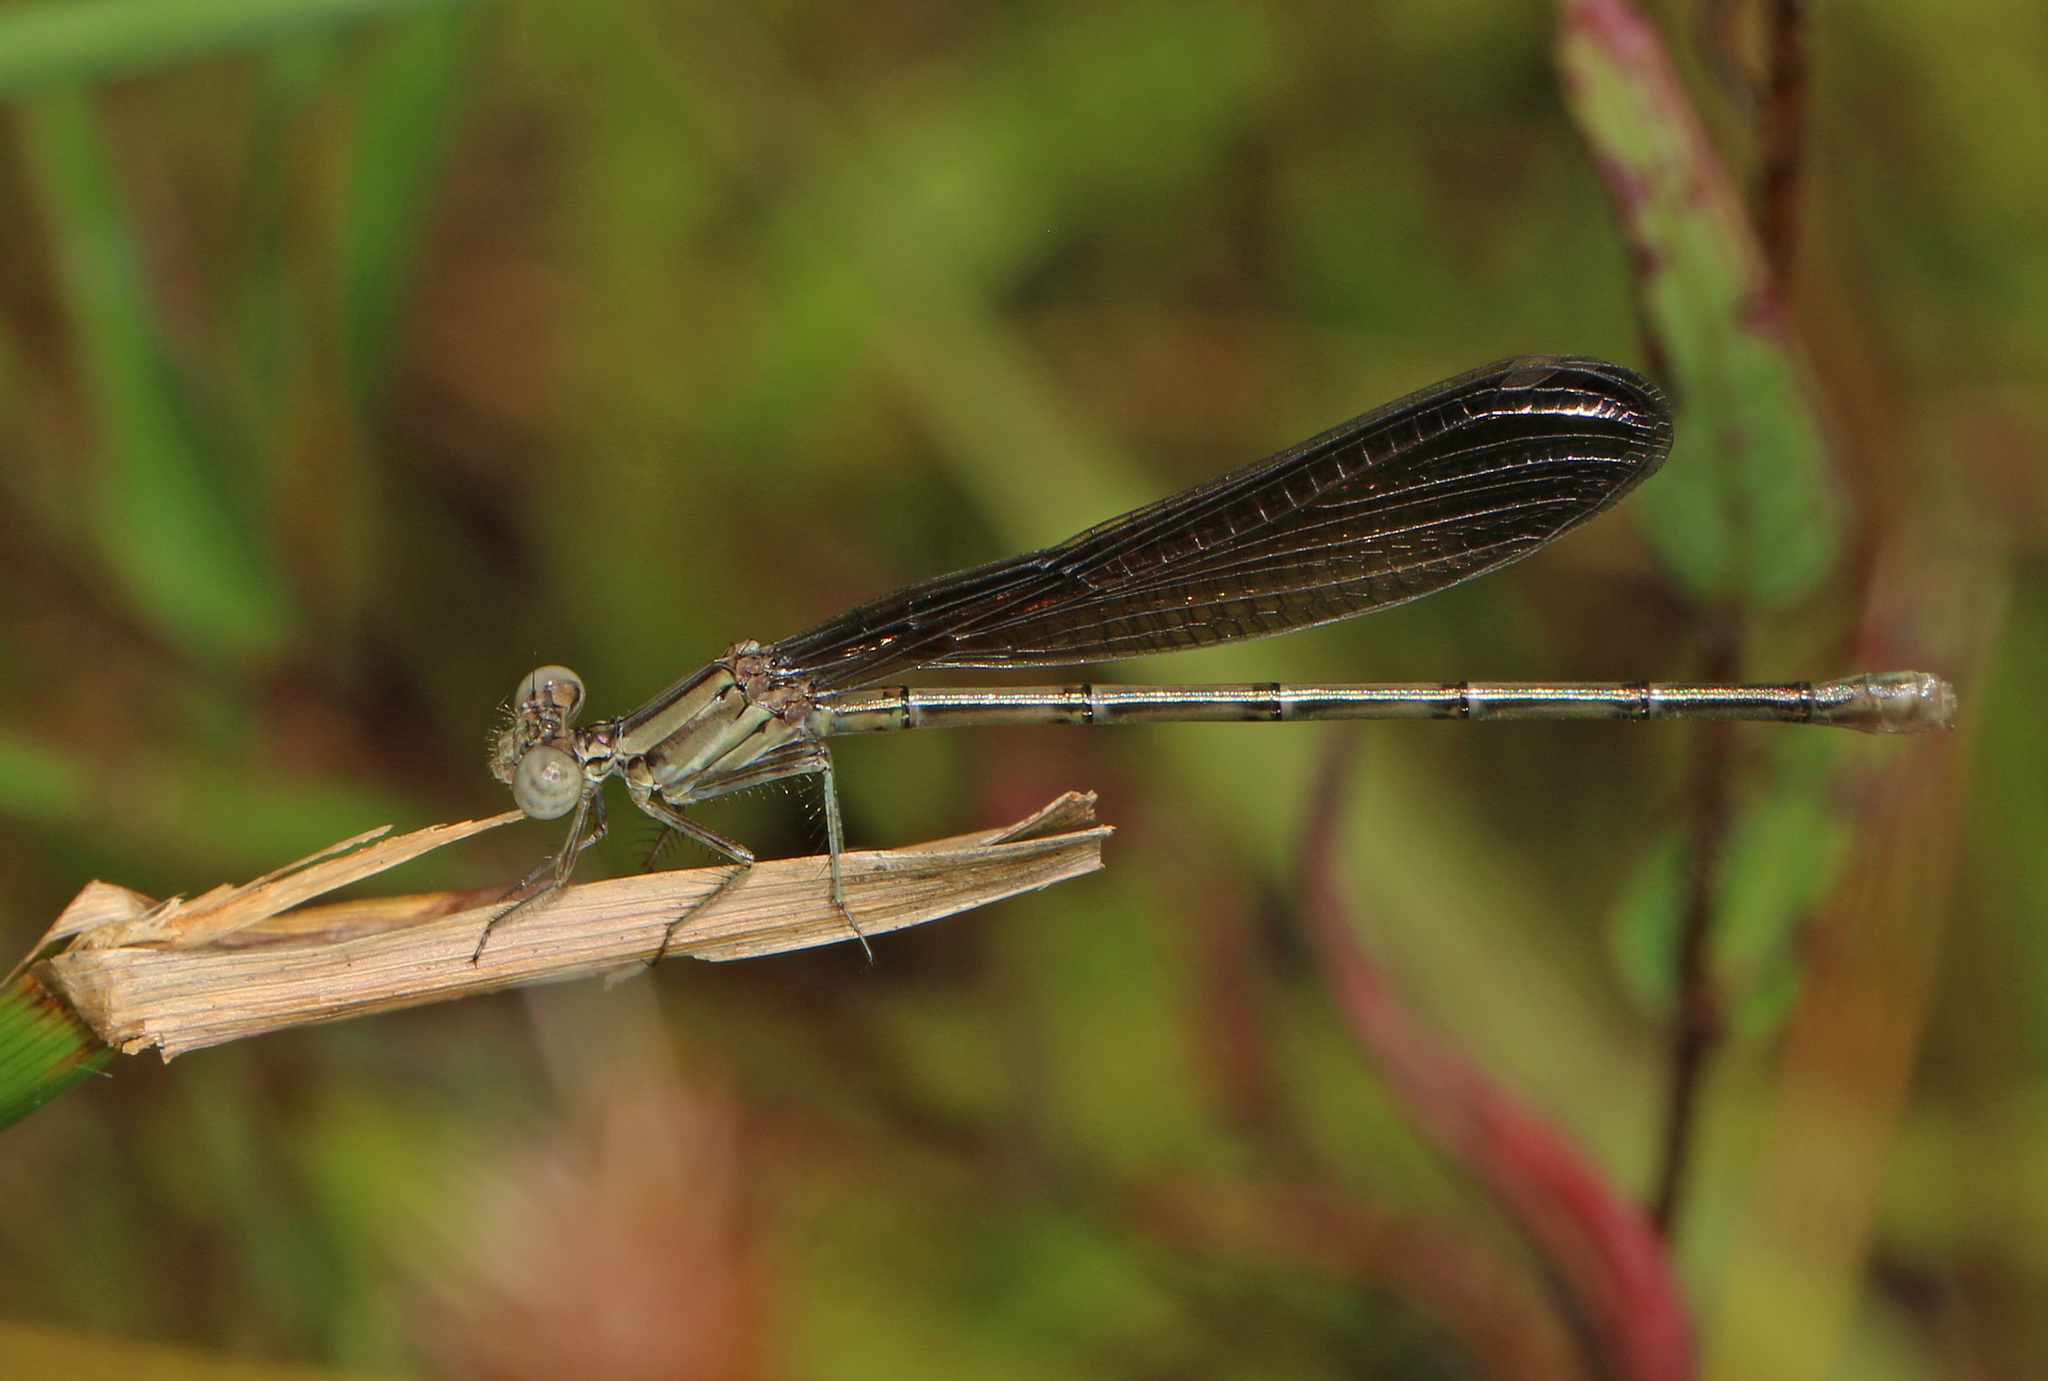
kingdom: Animalia
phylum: Arthropoda
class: Insecta
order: Odonata
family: Coenagrionidae
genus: Argia
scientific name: Argia fumipennis
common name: Variable dancer
